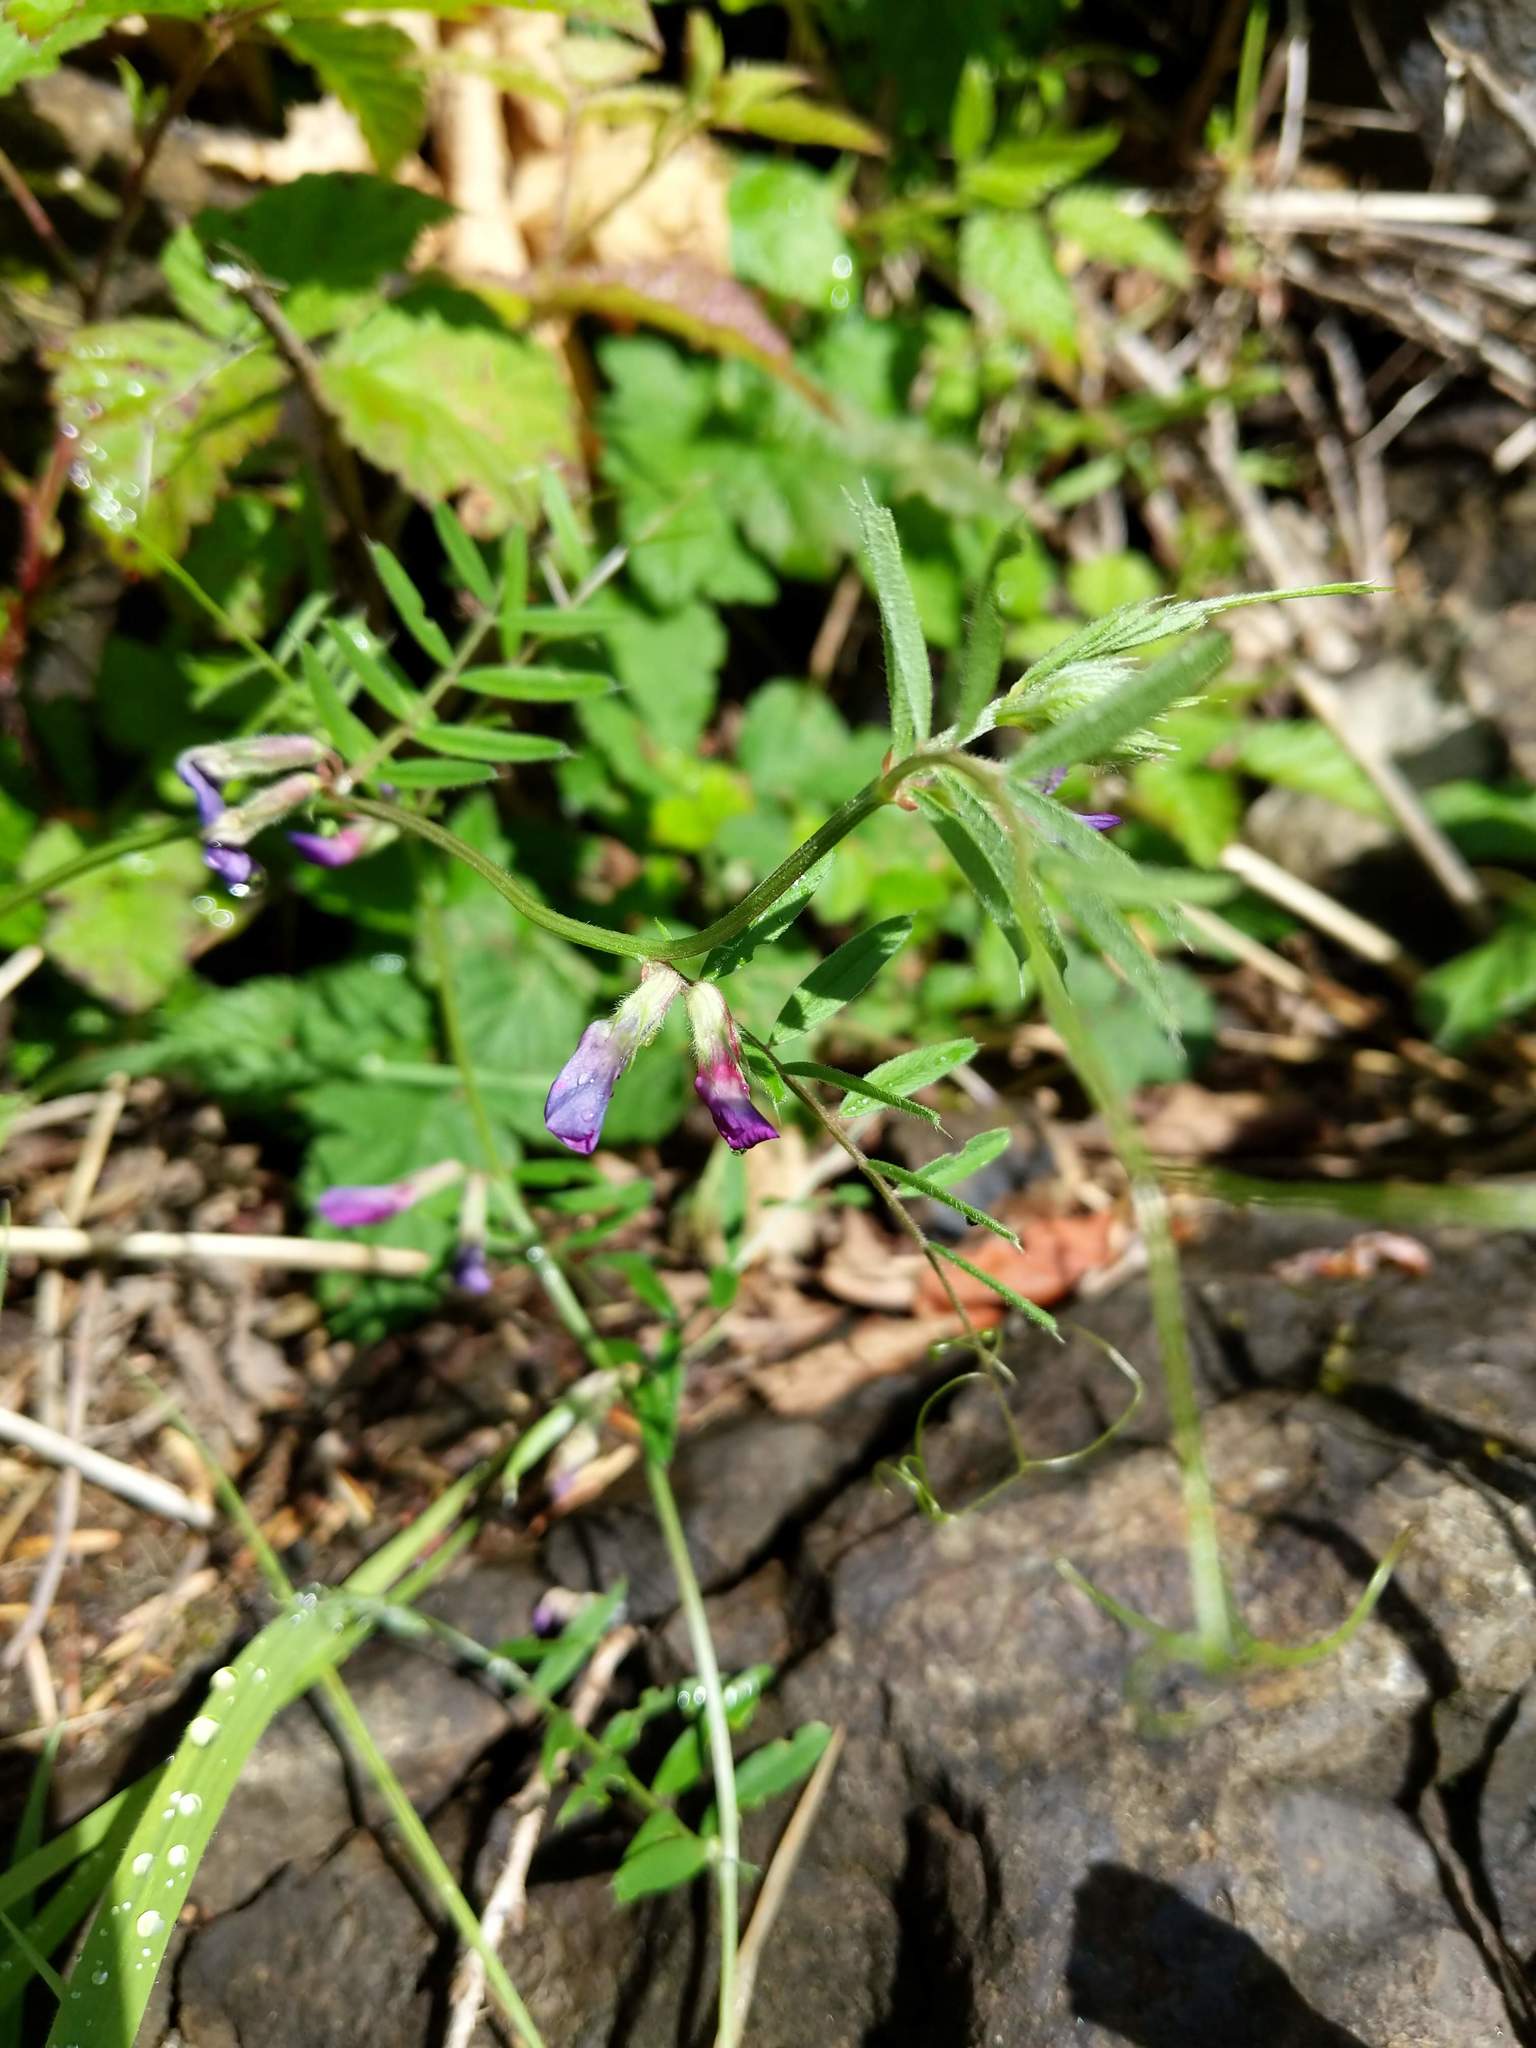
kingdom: Plantae
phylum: Tracheophyta
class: Magnoliopsida
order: Fabales
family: Fabaceae
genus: Vicia
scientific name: Vicia sativa
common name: Garden vetch
